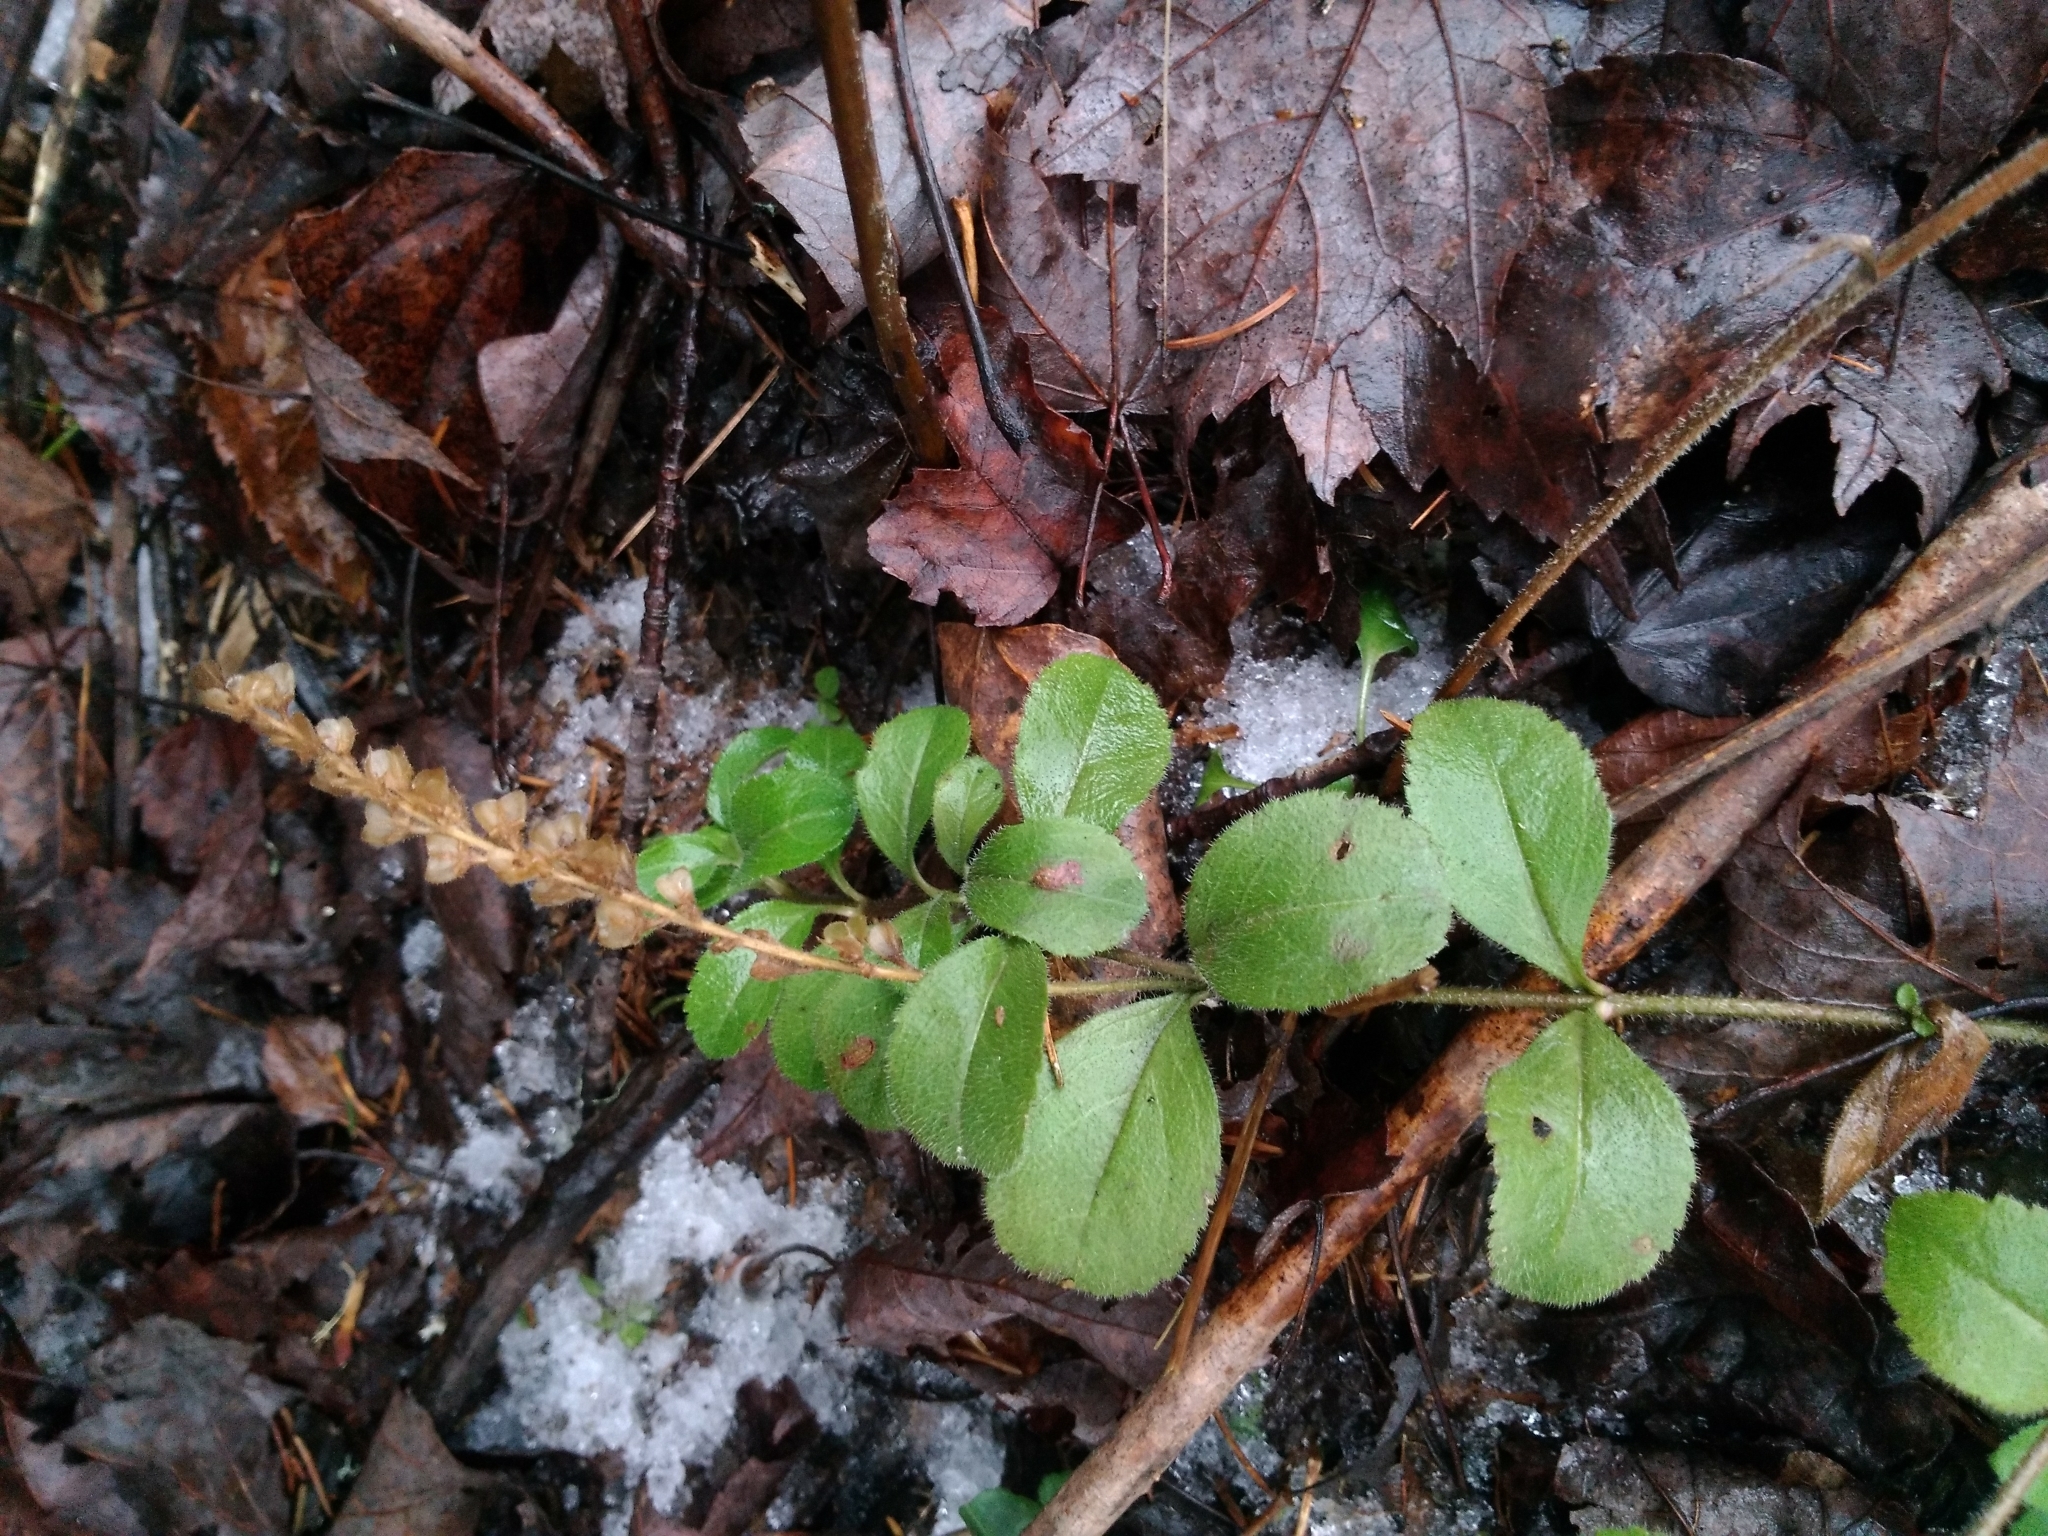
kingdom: Plantae
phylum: Tracheophyta
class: Magnoliopsida
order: Lamiales
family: Plantaginaceae
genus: Veronica
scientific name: Veronica officinalis
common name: Common speedwell
